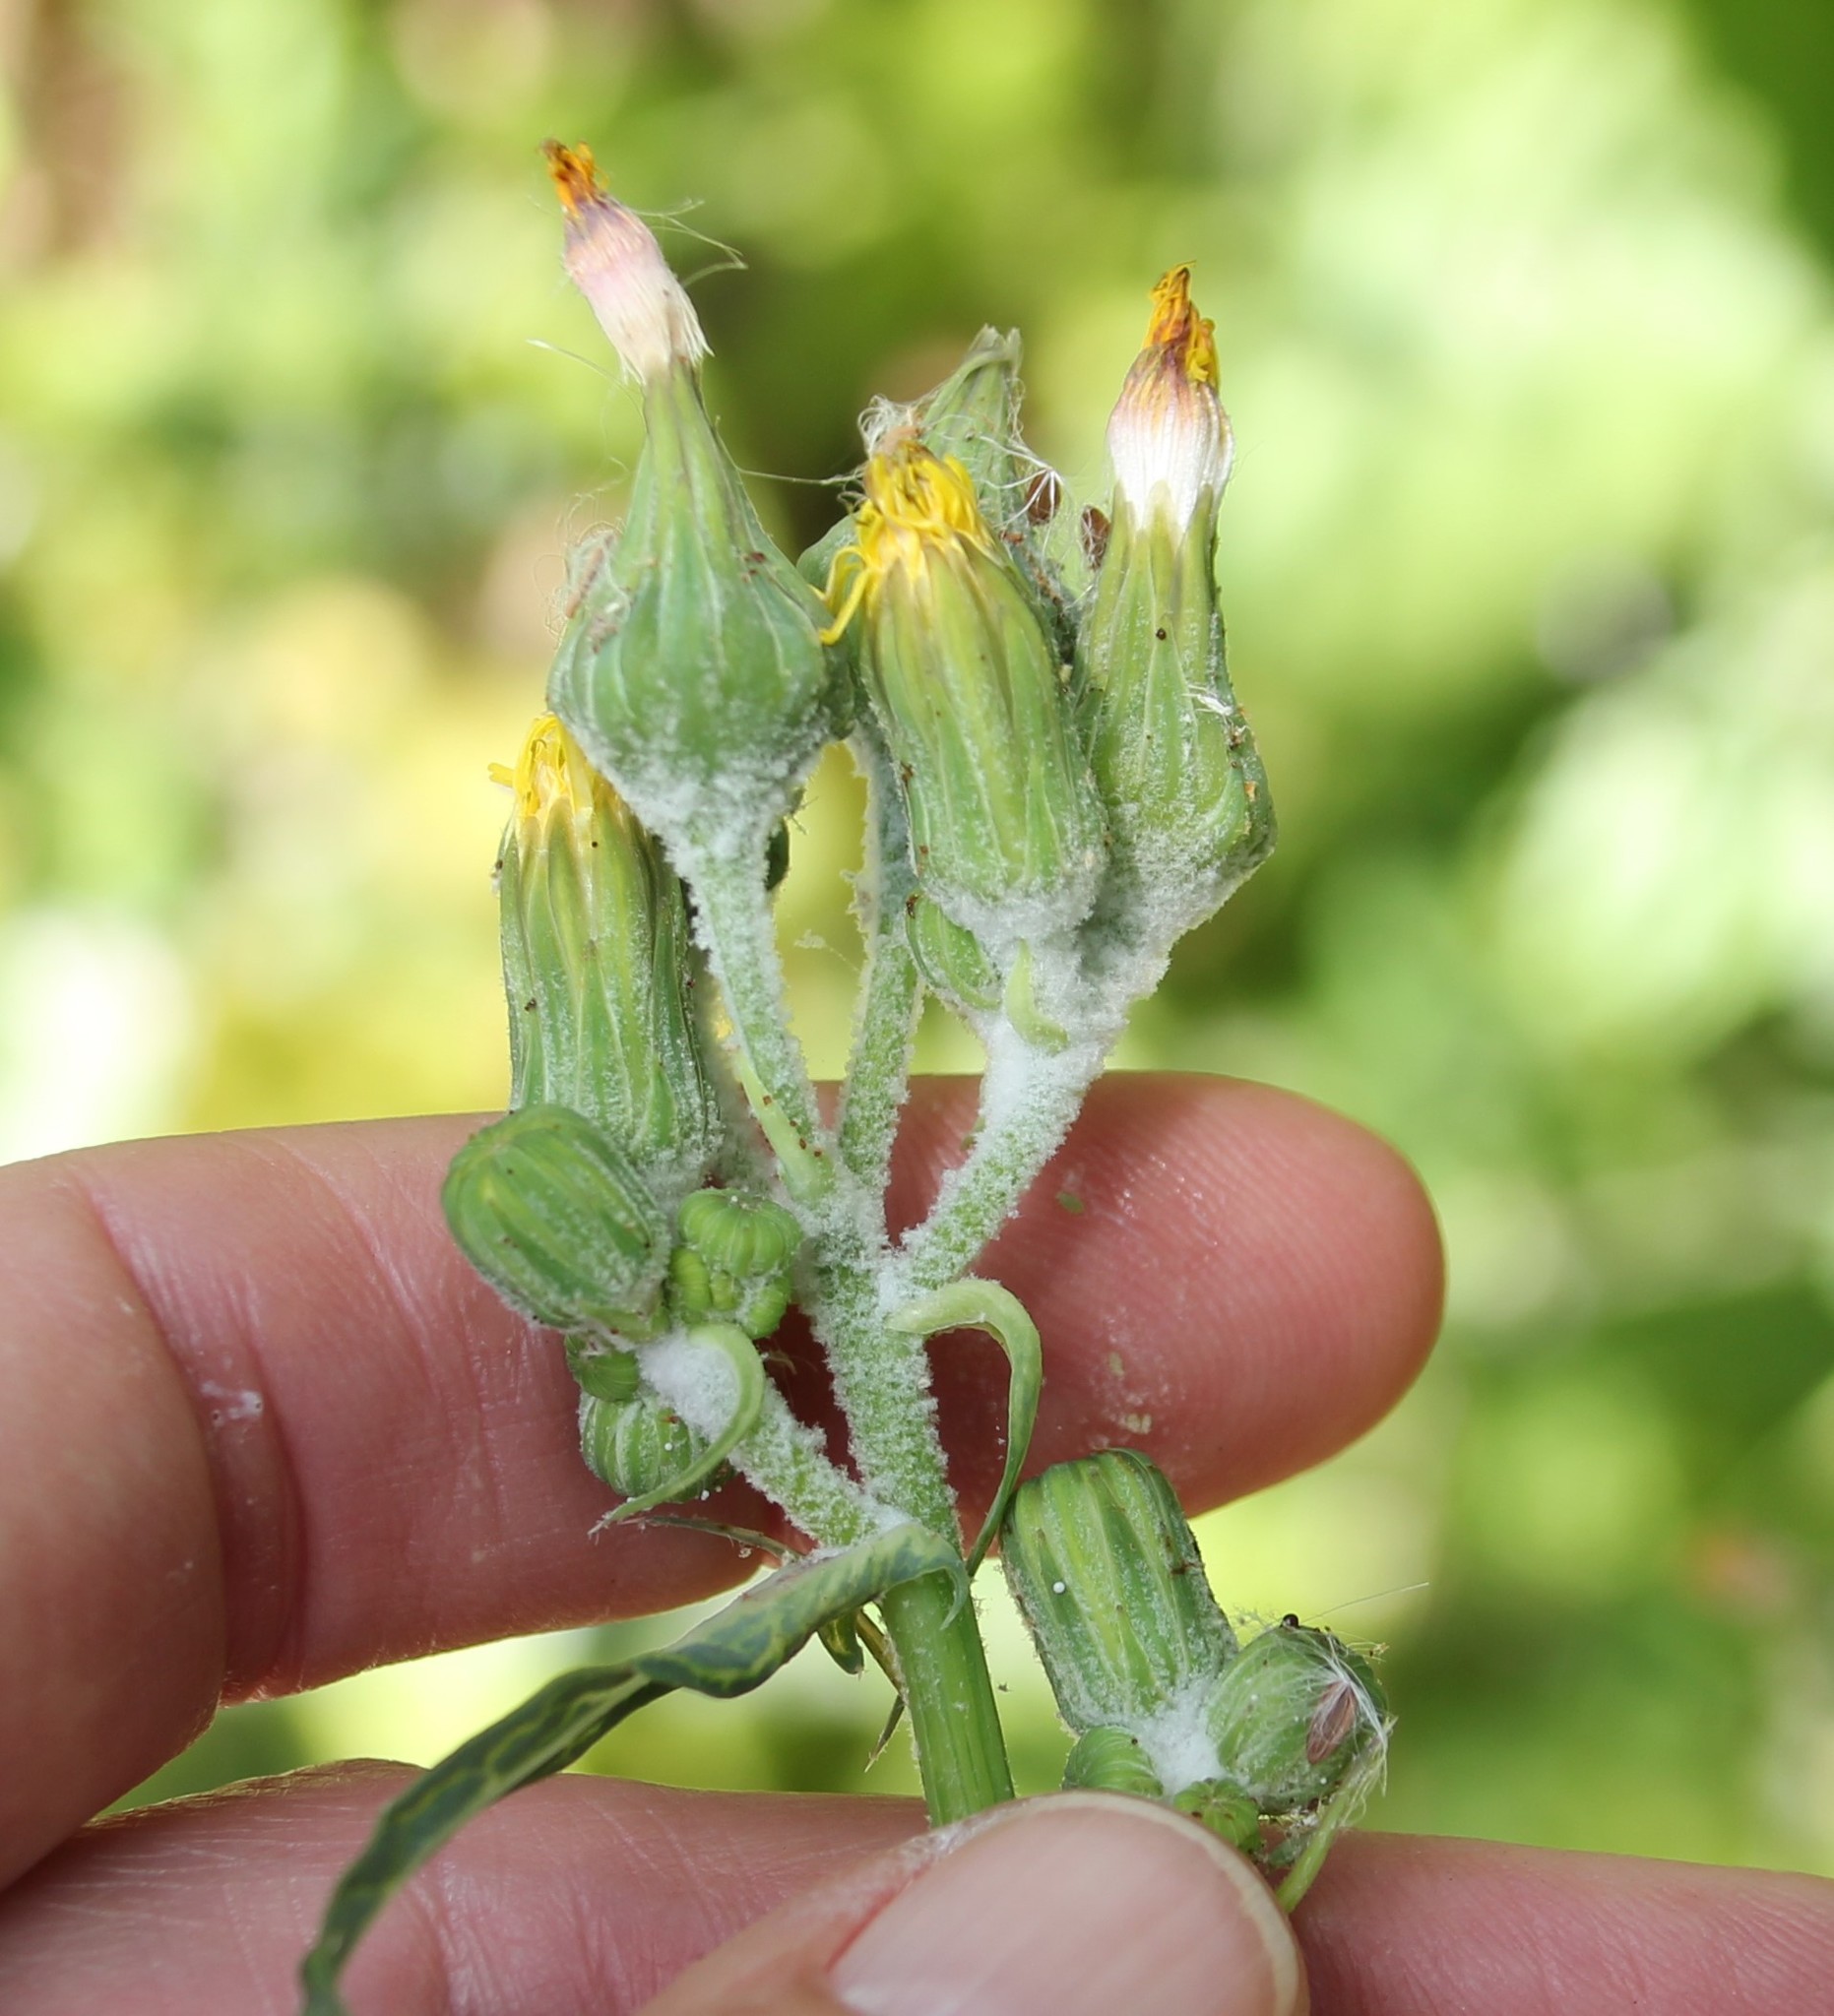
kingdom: Plantae
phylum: Tracheophyta
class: Magnoliopsida
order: Asterales
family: Asteraceae
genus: Sonchus
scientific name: Sonchus oleraceus
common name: Common sowthistle
